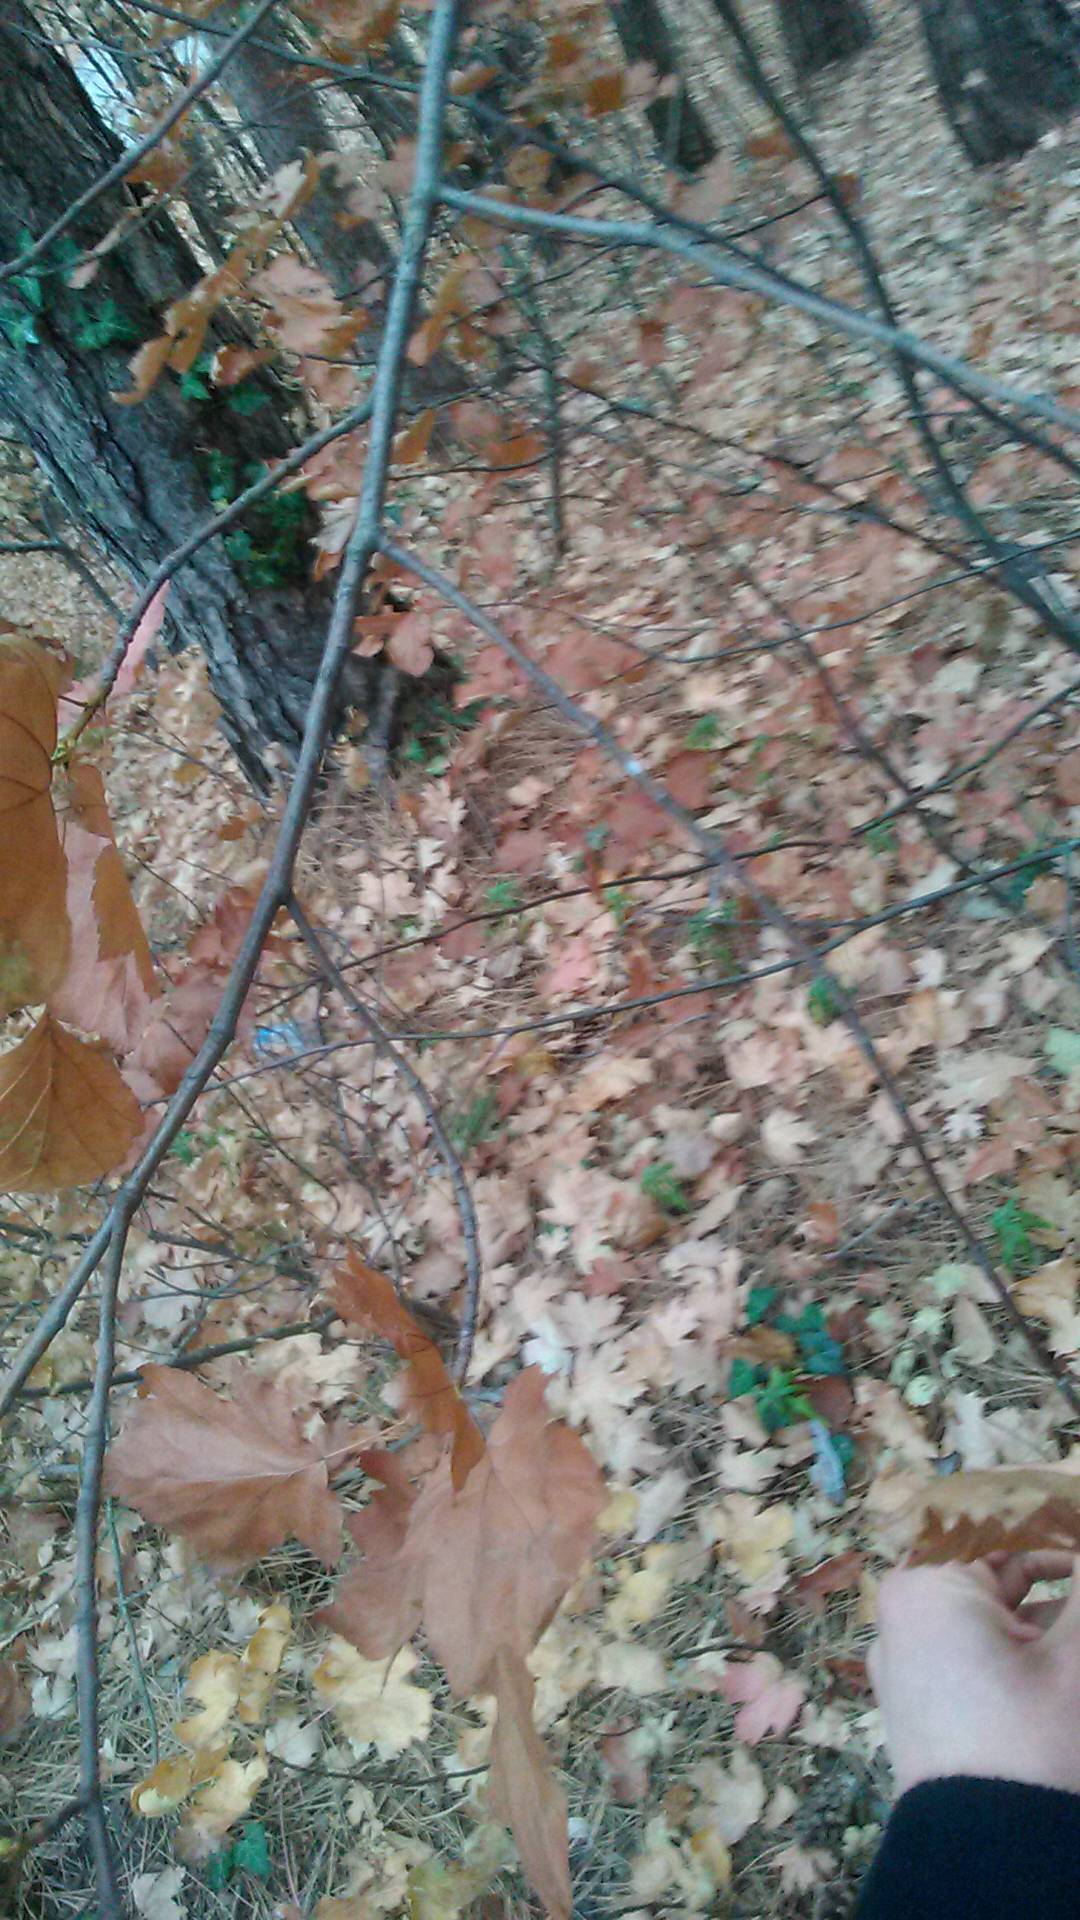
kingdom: Plantae
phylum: Tracheophyta
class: Magnoliopsida
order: Rosales
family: Rosaceae
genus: Torminalis
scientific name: Torminalis glaberrima
